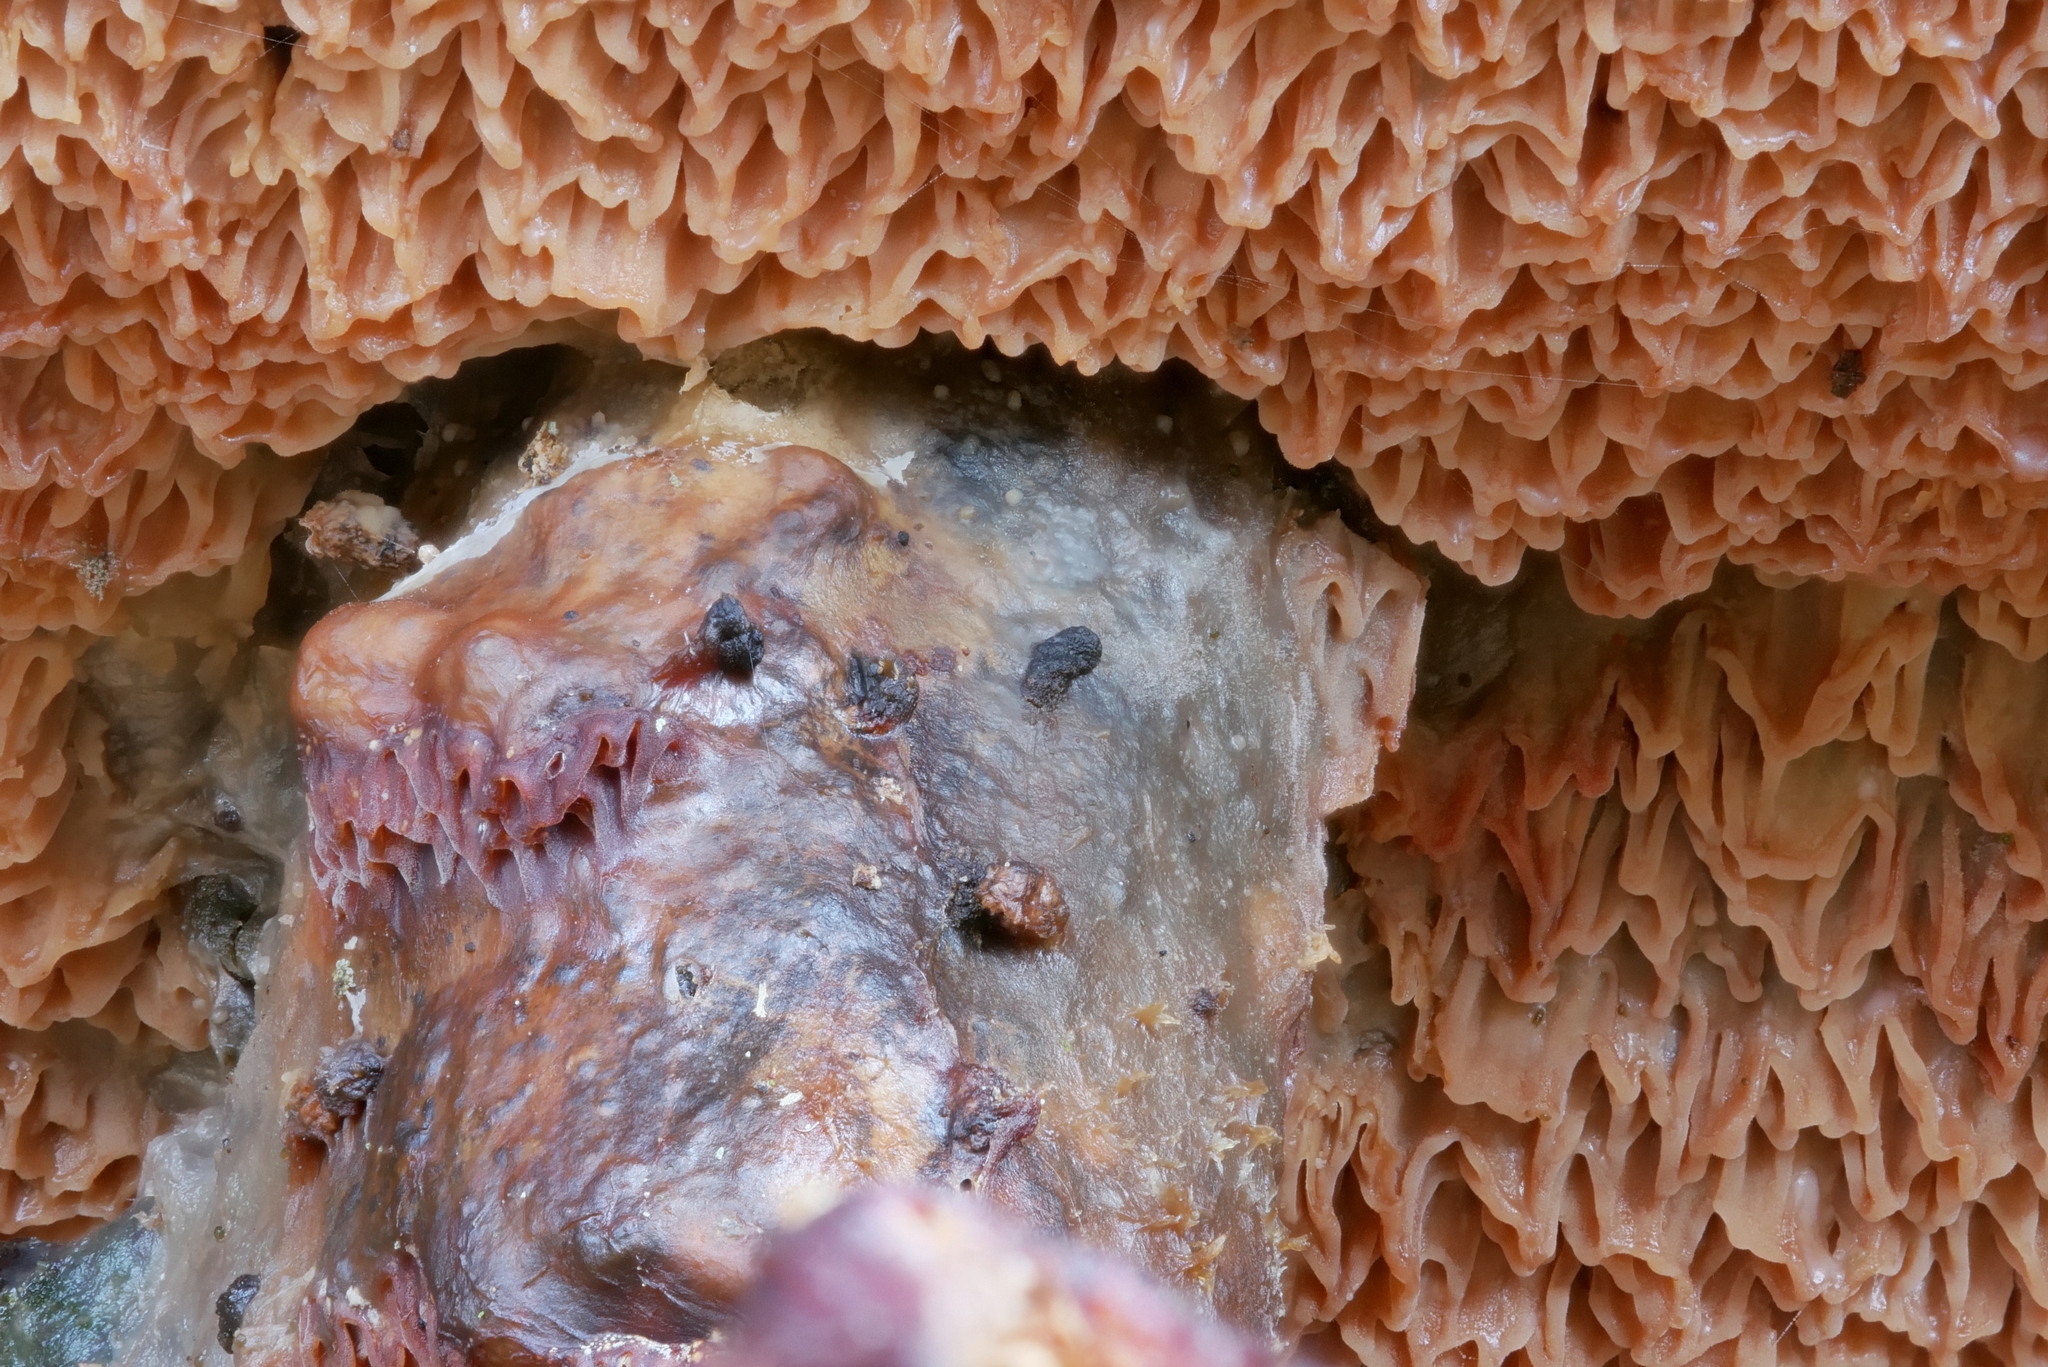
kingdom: Fungi
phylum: Basidiomycota
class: Agaricomycetes
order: Polyporales
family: Meruliaceae
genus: Phlebia
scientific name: Phlebia tremellosa
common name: Jelly rot
